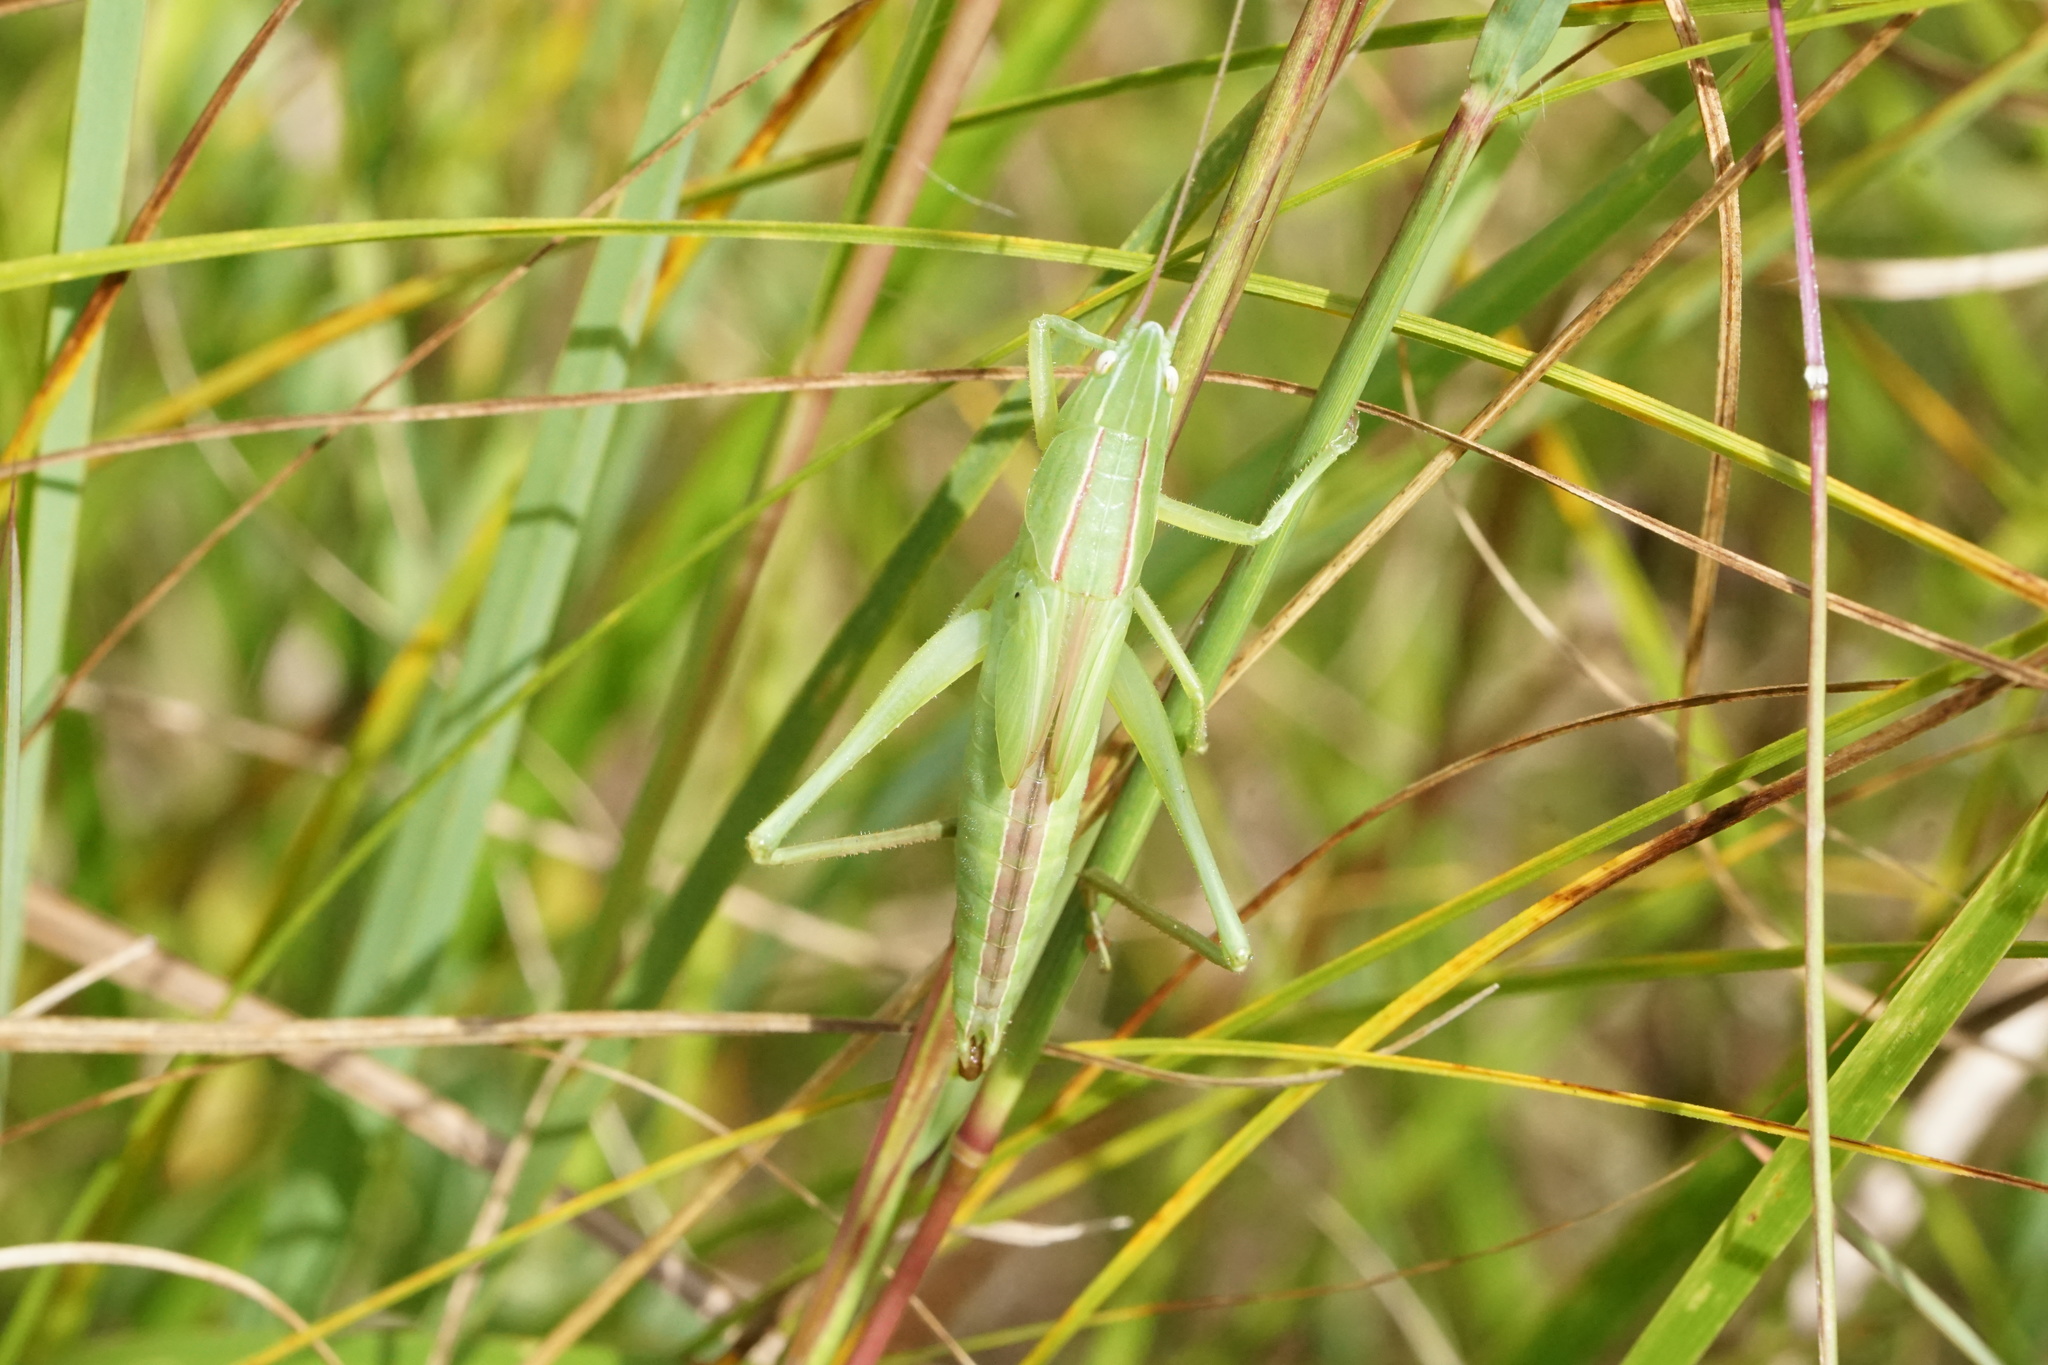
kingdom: Animalia
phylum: Arthropoda
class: Insecta
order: Orthoptera
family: Tettigoniidae
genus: Neoconocephalus
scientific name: Neoconocephalus retusus
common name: Round-tipped conehead
